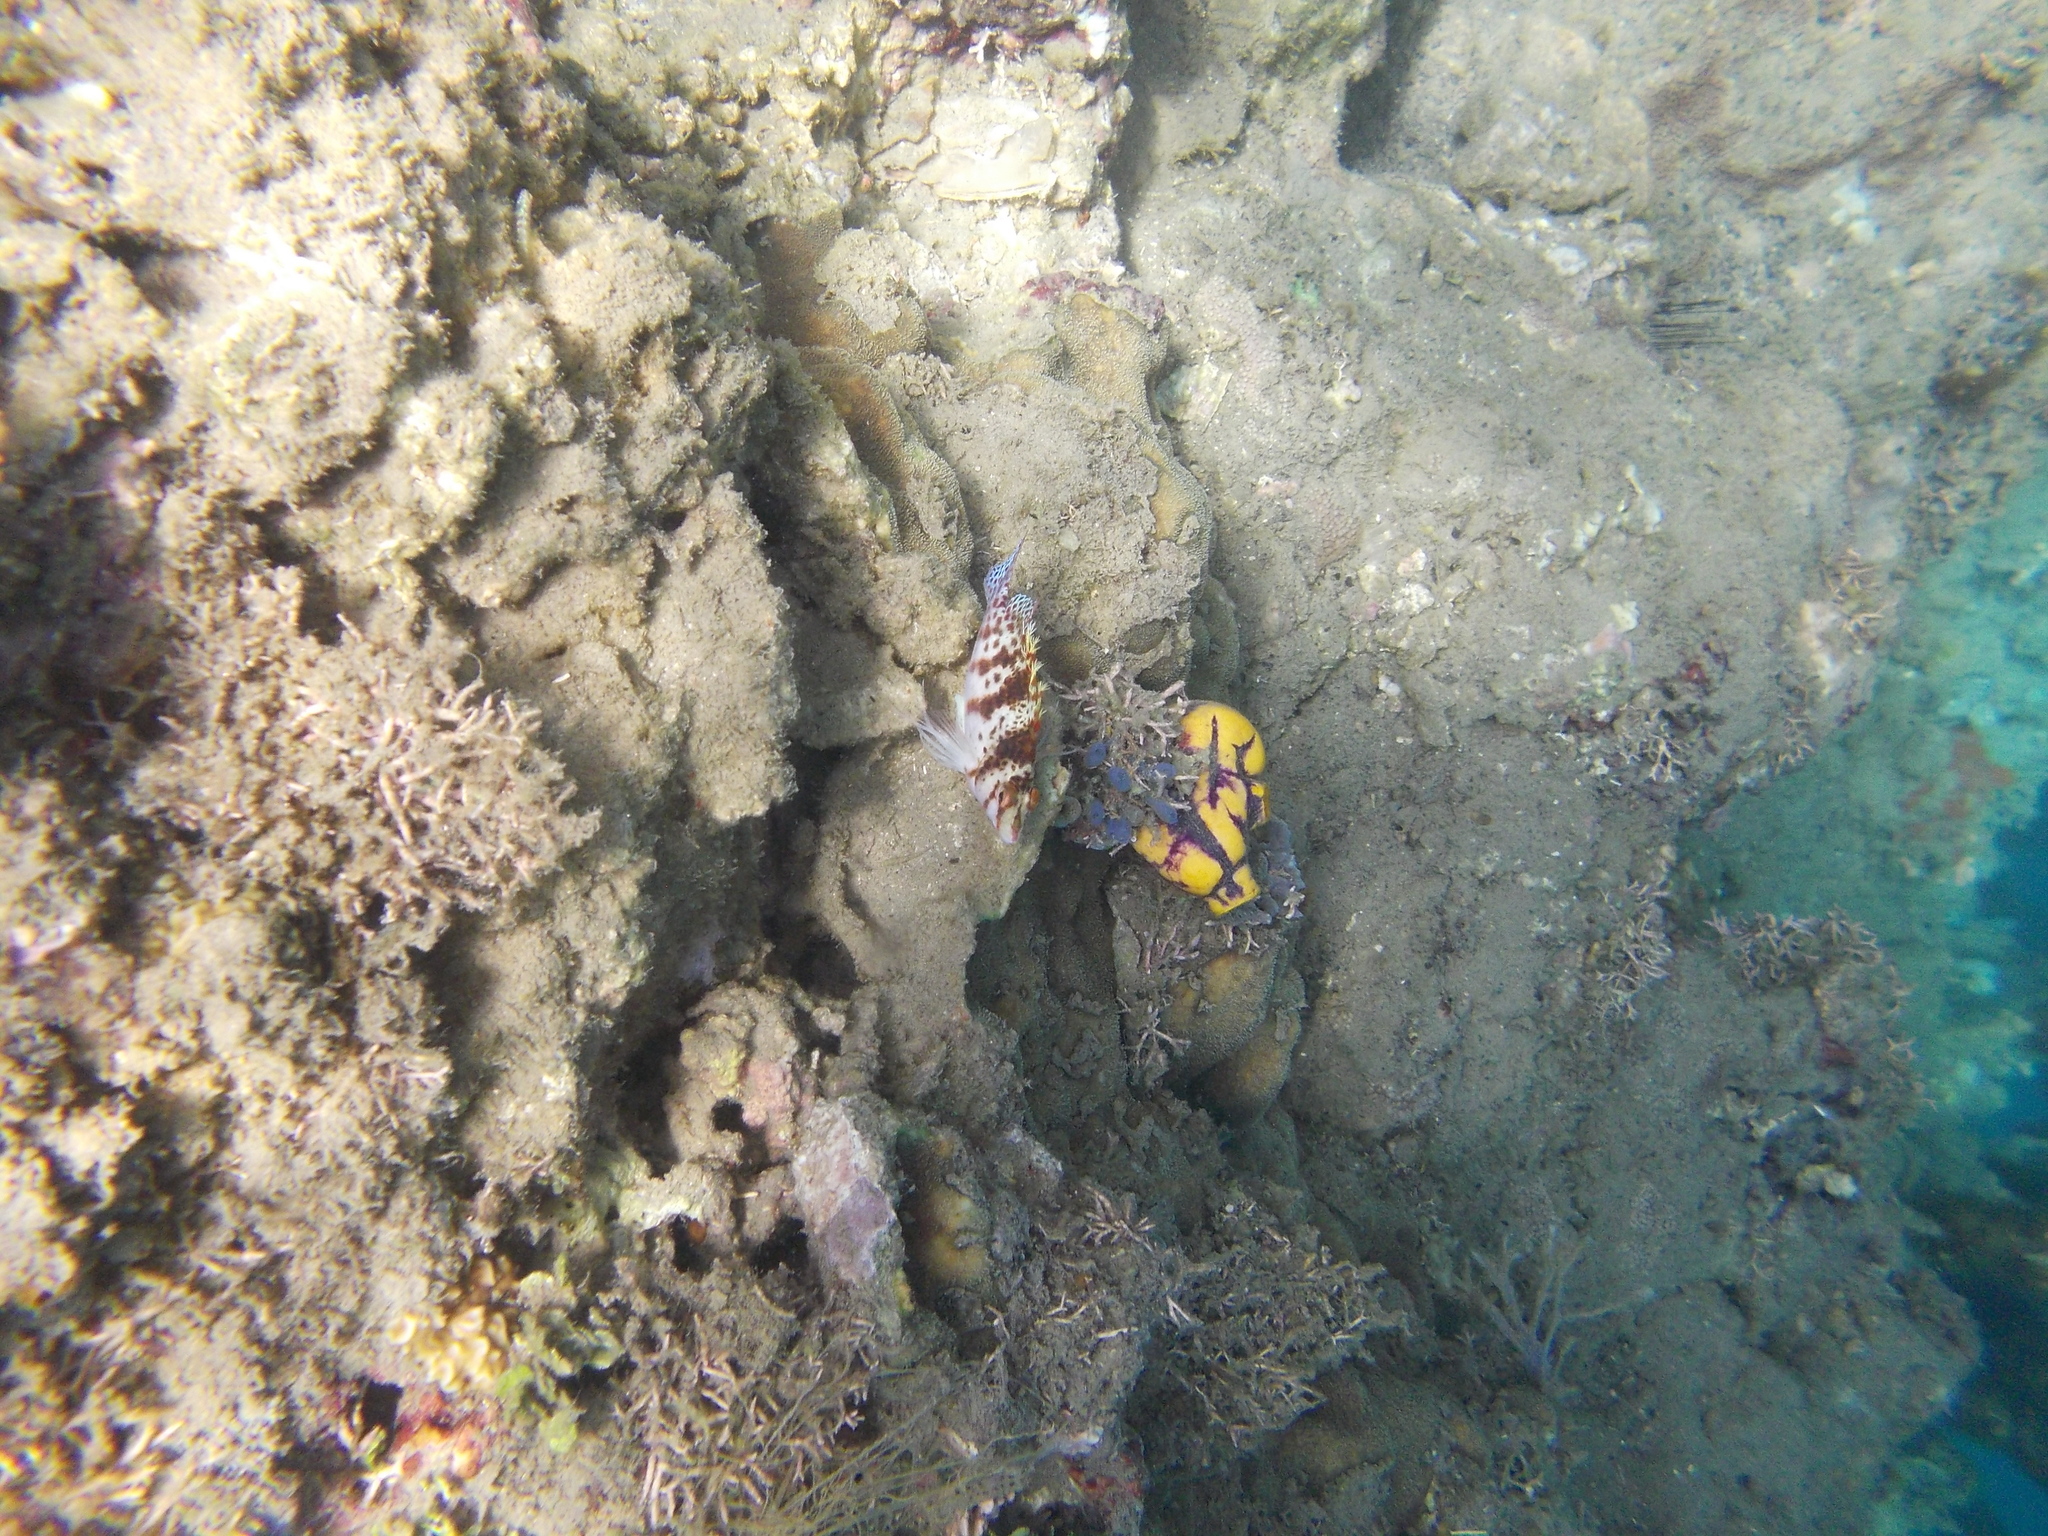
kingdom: Animalia
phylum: Chordata
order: Perciformes
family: Cirrhitidae
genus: Cirrhitichthys
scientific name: Cirrhitichthys falco
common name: Coral hawkfish
